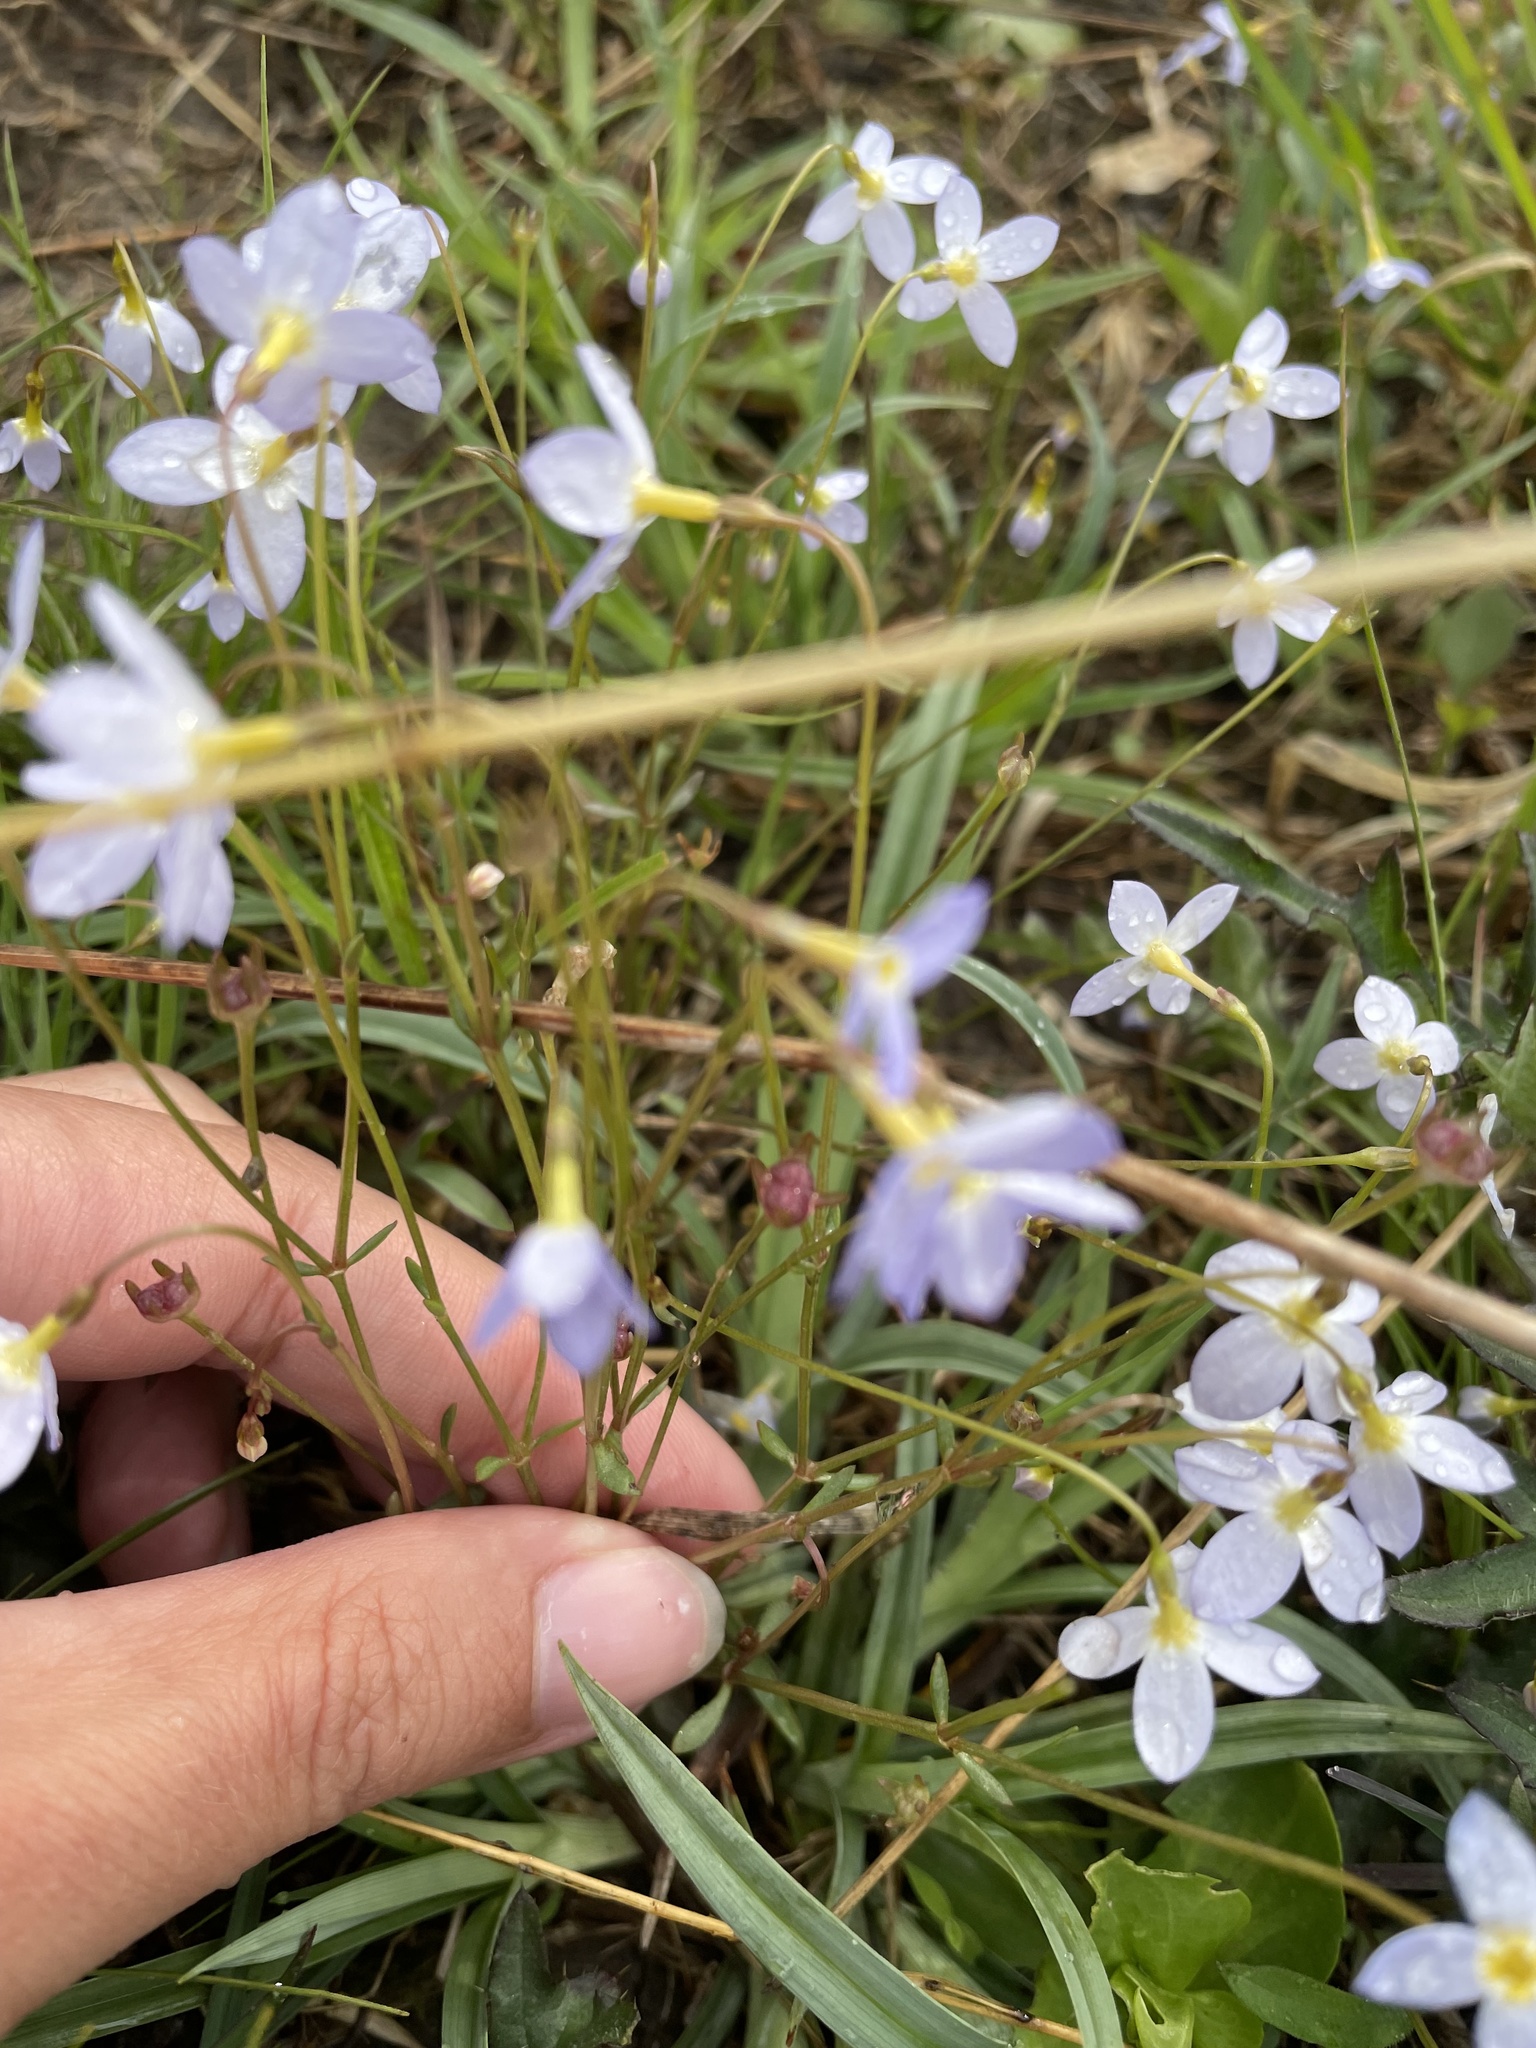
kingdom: Plantae
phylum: Tracheophyta
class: Magnoliopsida
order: Gentianales
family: Rubiaceae
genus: Houstonia
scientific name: Houstonia caerulea
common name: Bluets
